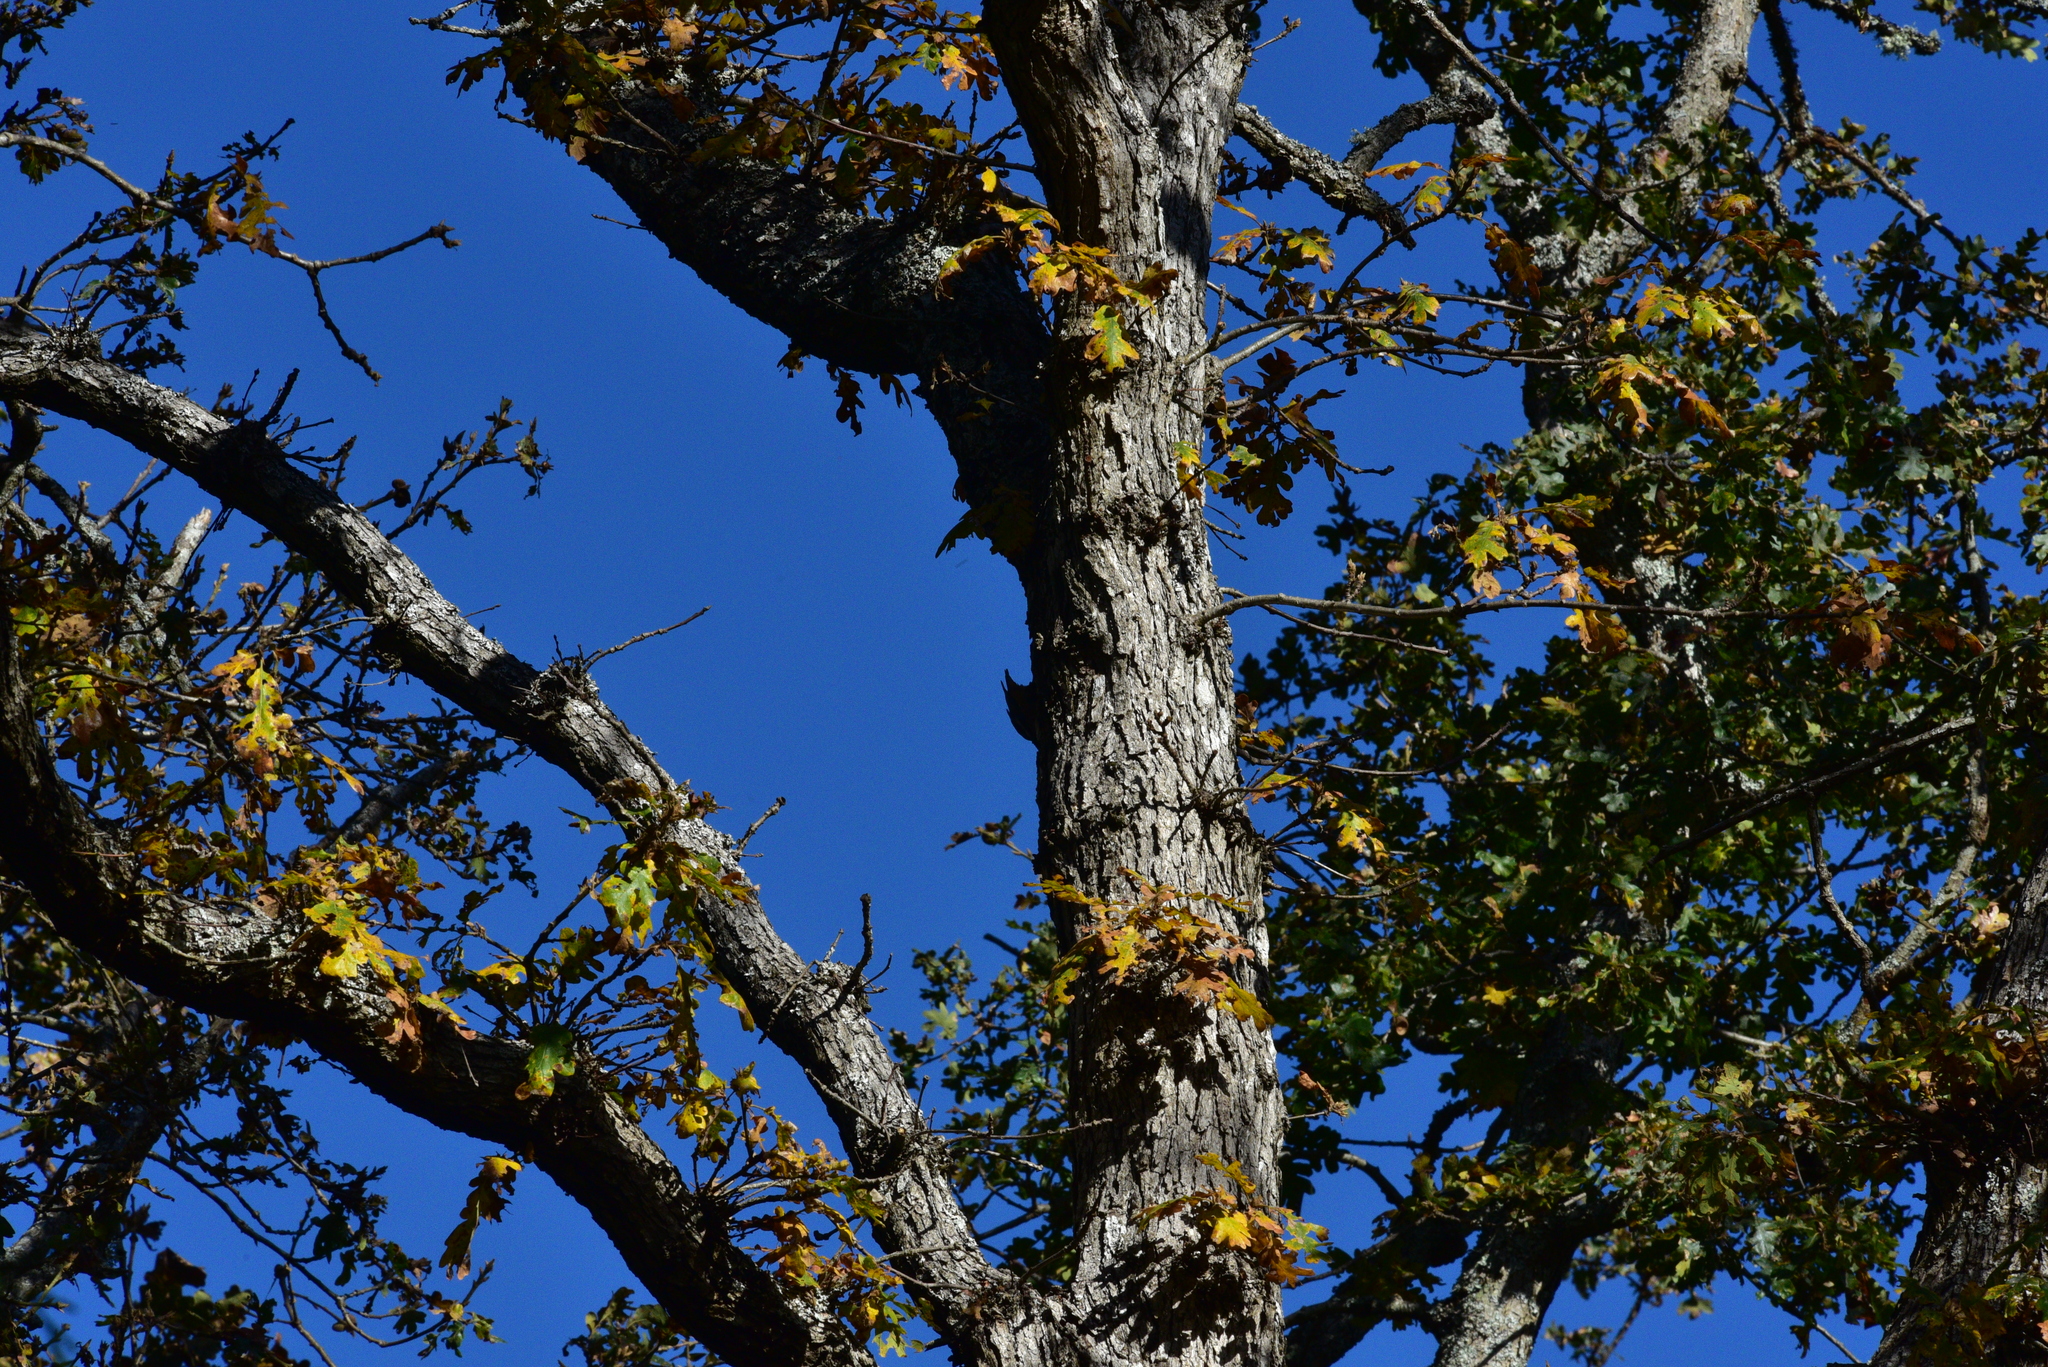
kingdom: Animalia
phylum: Chordata
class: Aves
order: Passeriformes
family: Sittidae
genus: Sitta
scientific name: Sitta canadensis
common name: Red-breasted nuthatch
